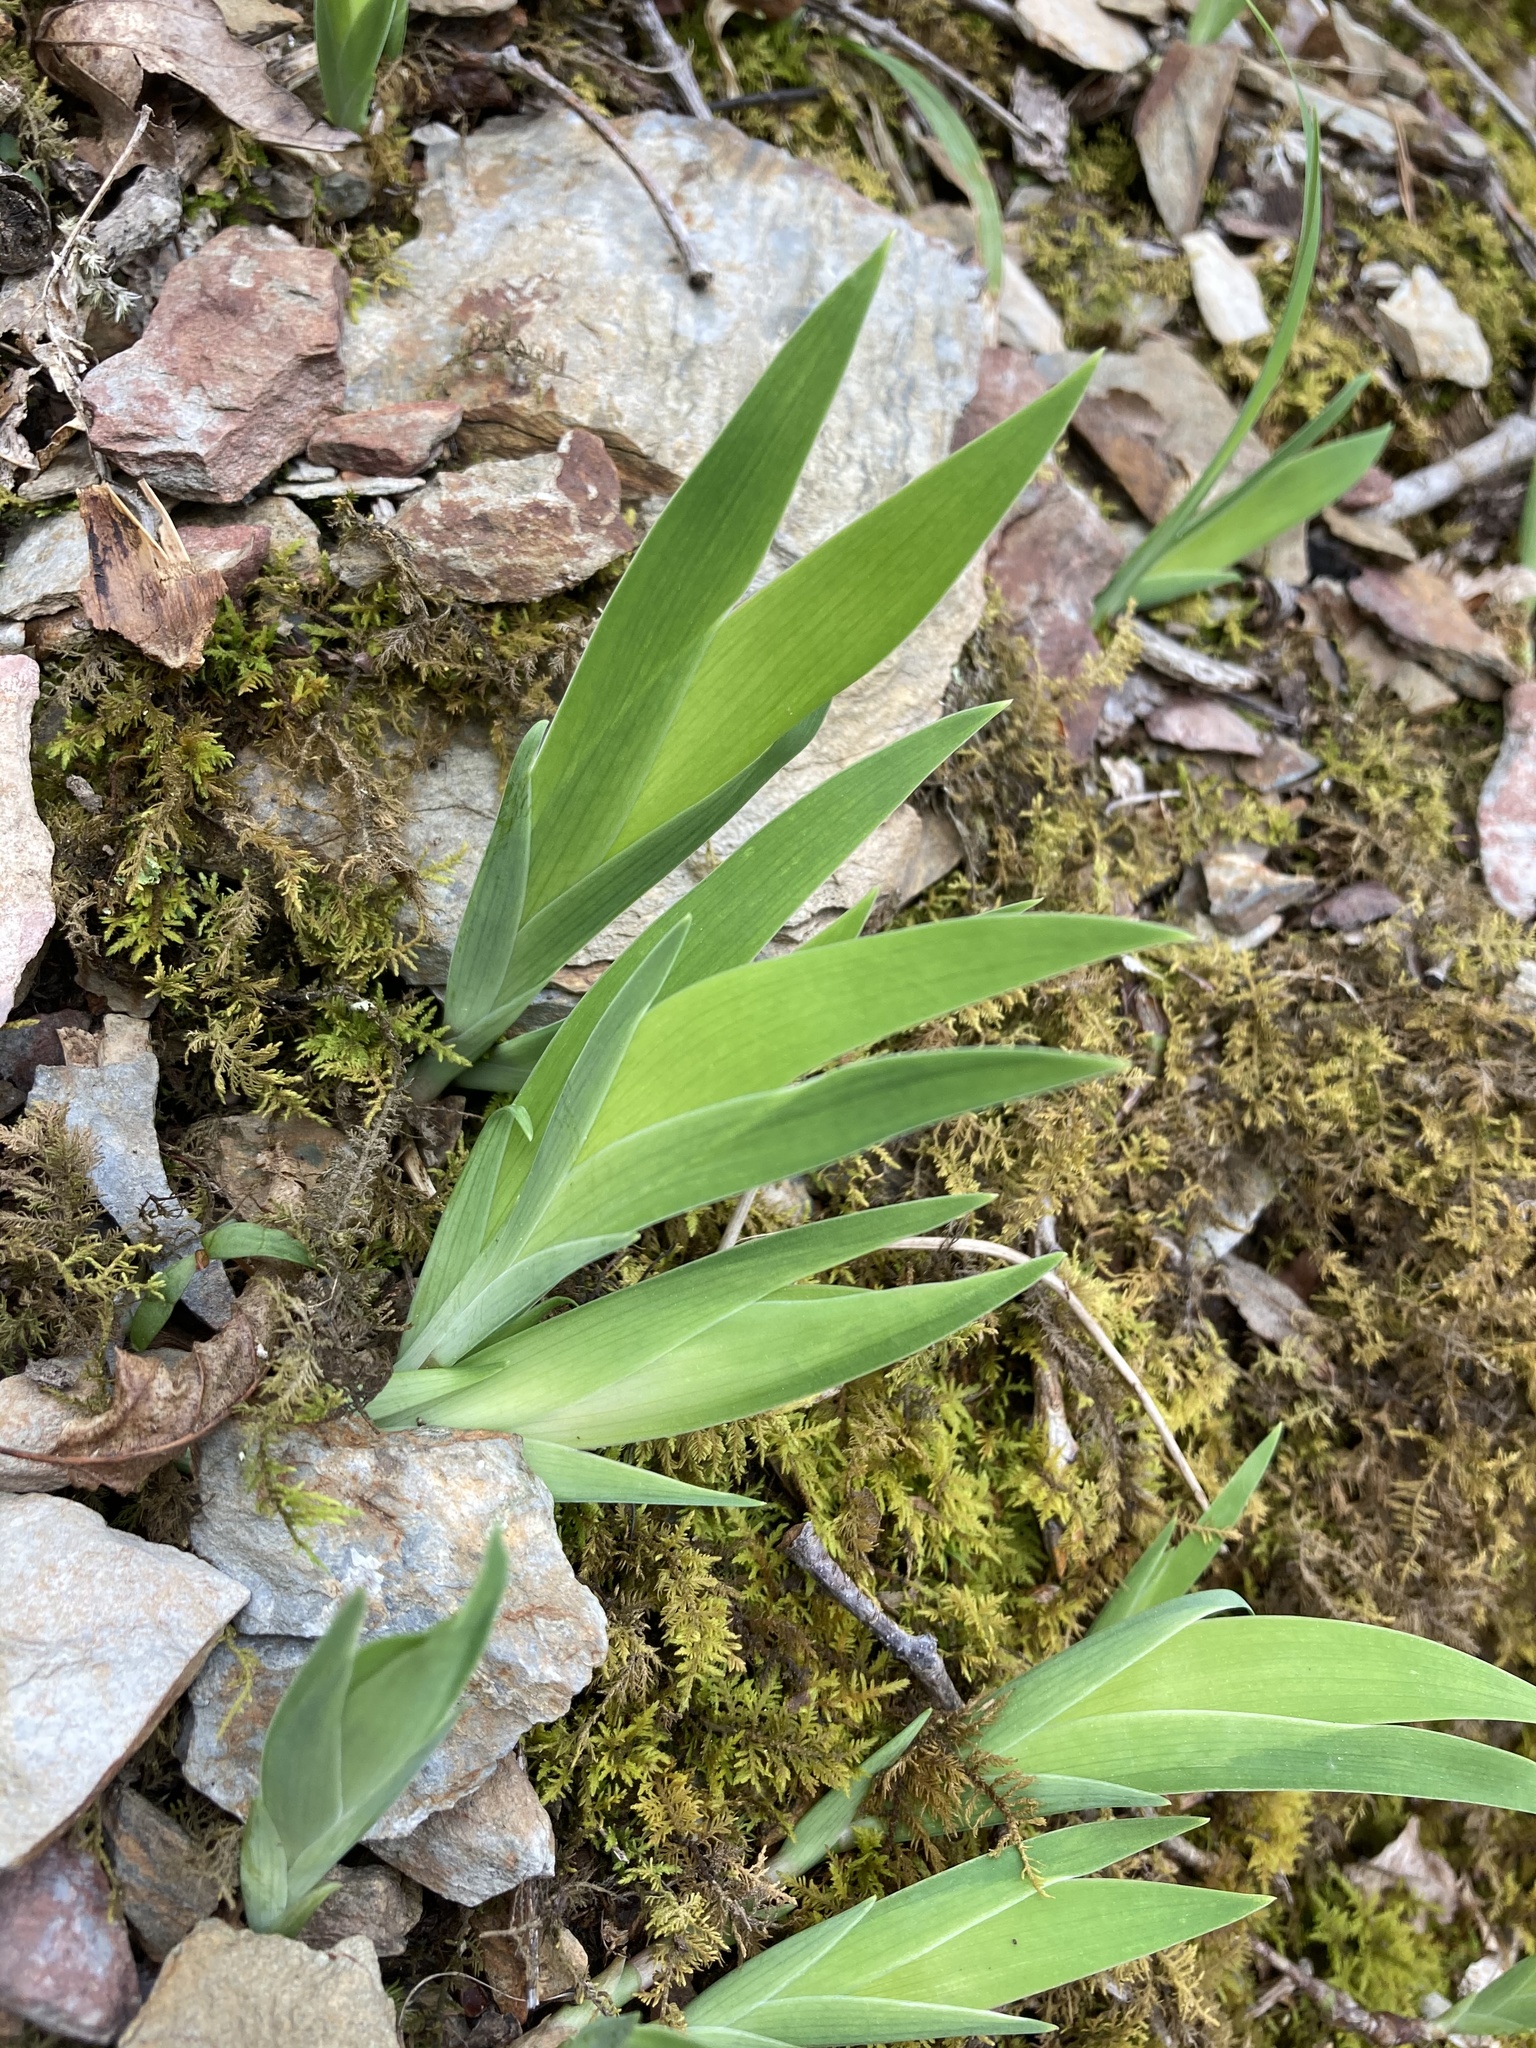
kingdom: Plantae
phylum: Tracheophyta
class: Liliopsida
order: Asparagales
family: Iridaceae
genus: Iris
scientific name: Iris cristata
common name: Crested iris
